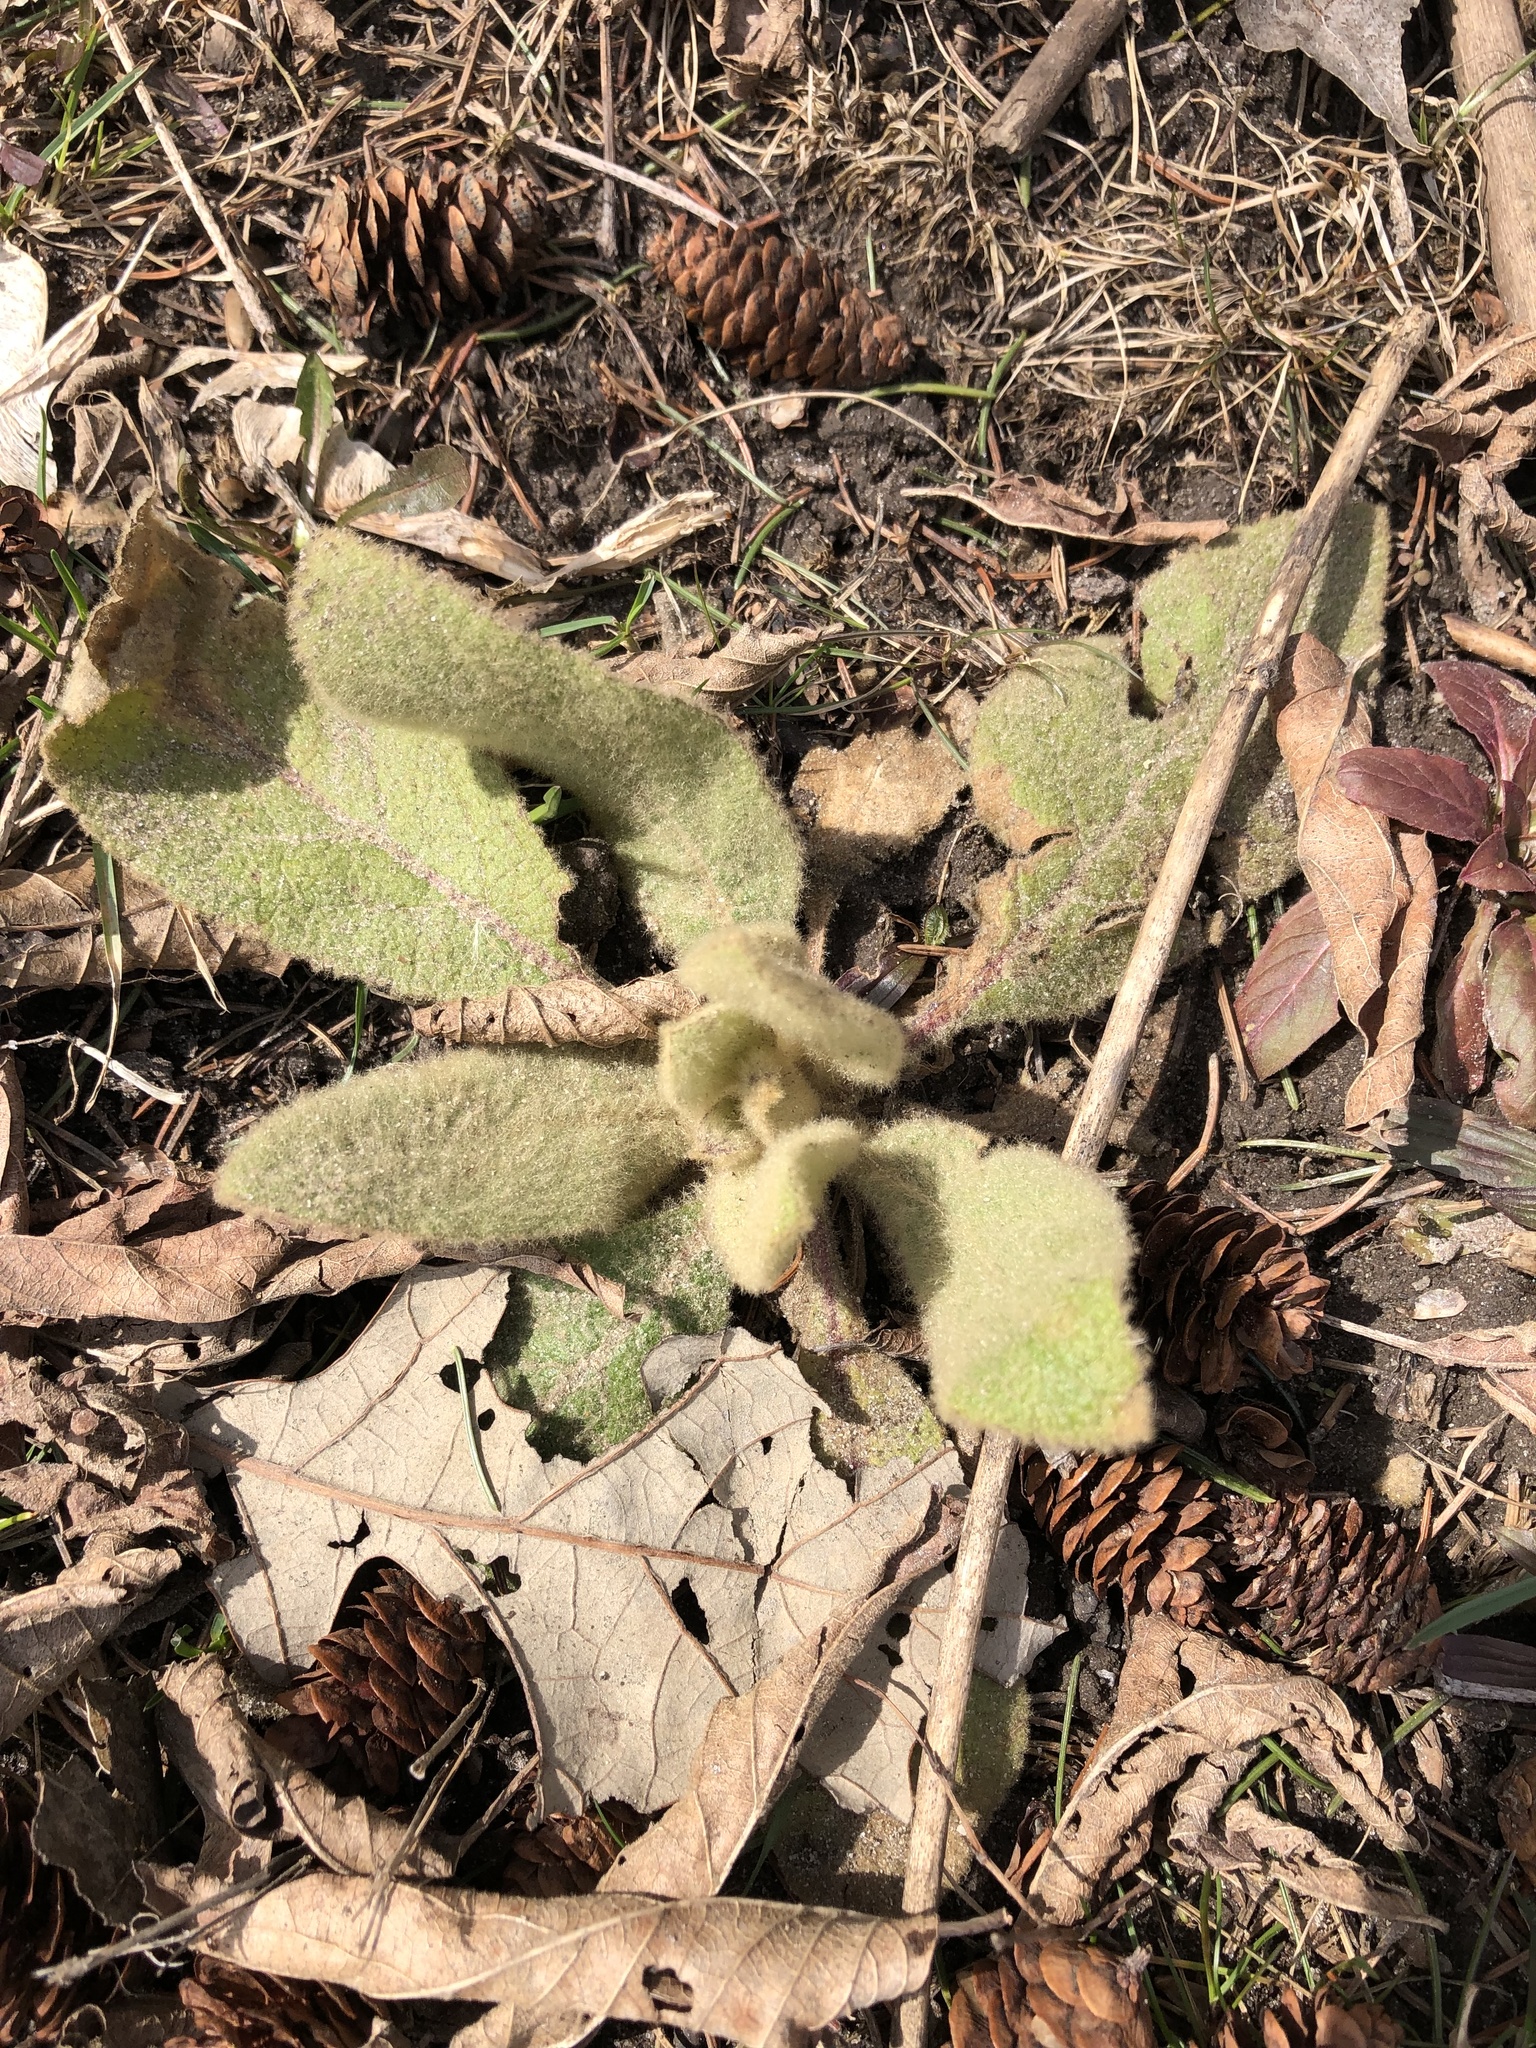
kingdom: Plantae
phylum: Tracheophyta
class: Magnoliopsida
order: Lamiales
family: Scrophulariaceae
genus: Verbascum
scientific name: Verbascum thapsus
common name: Common mullein
